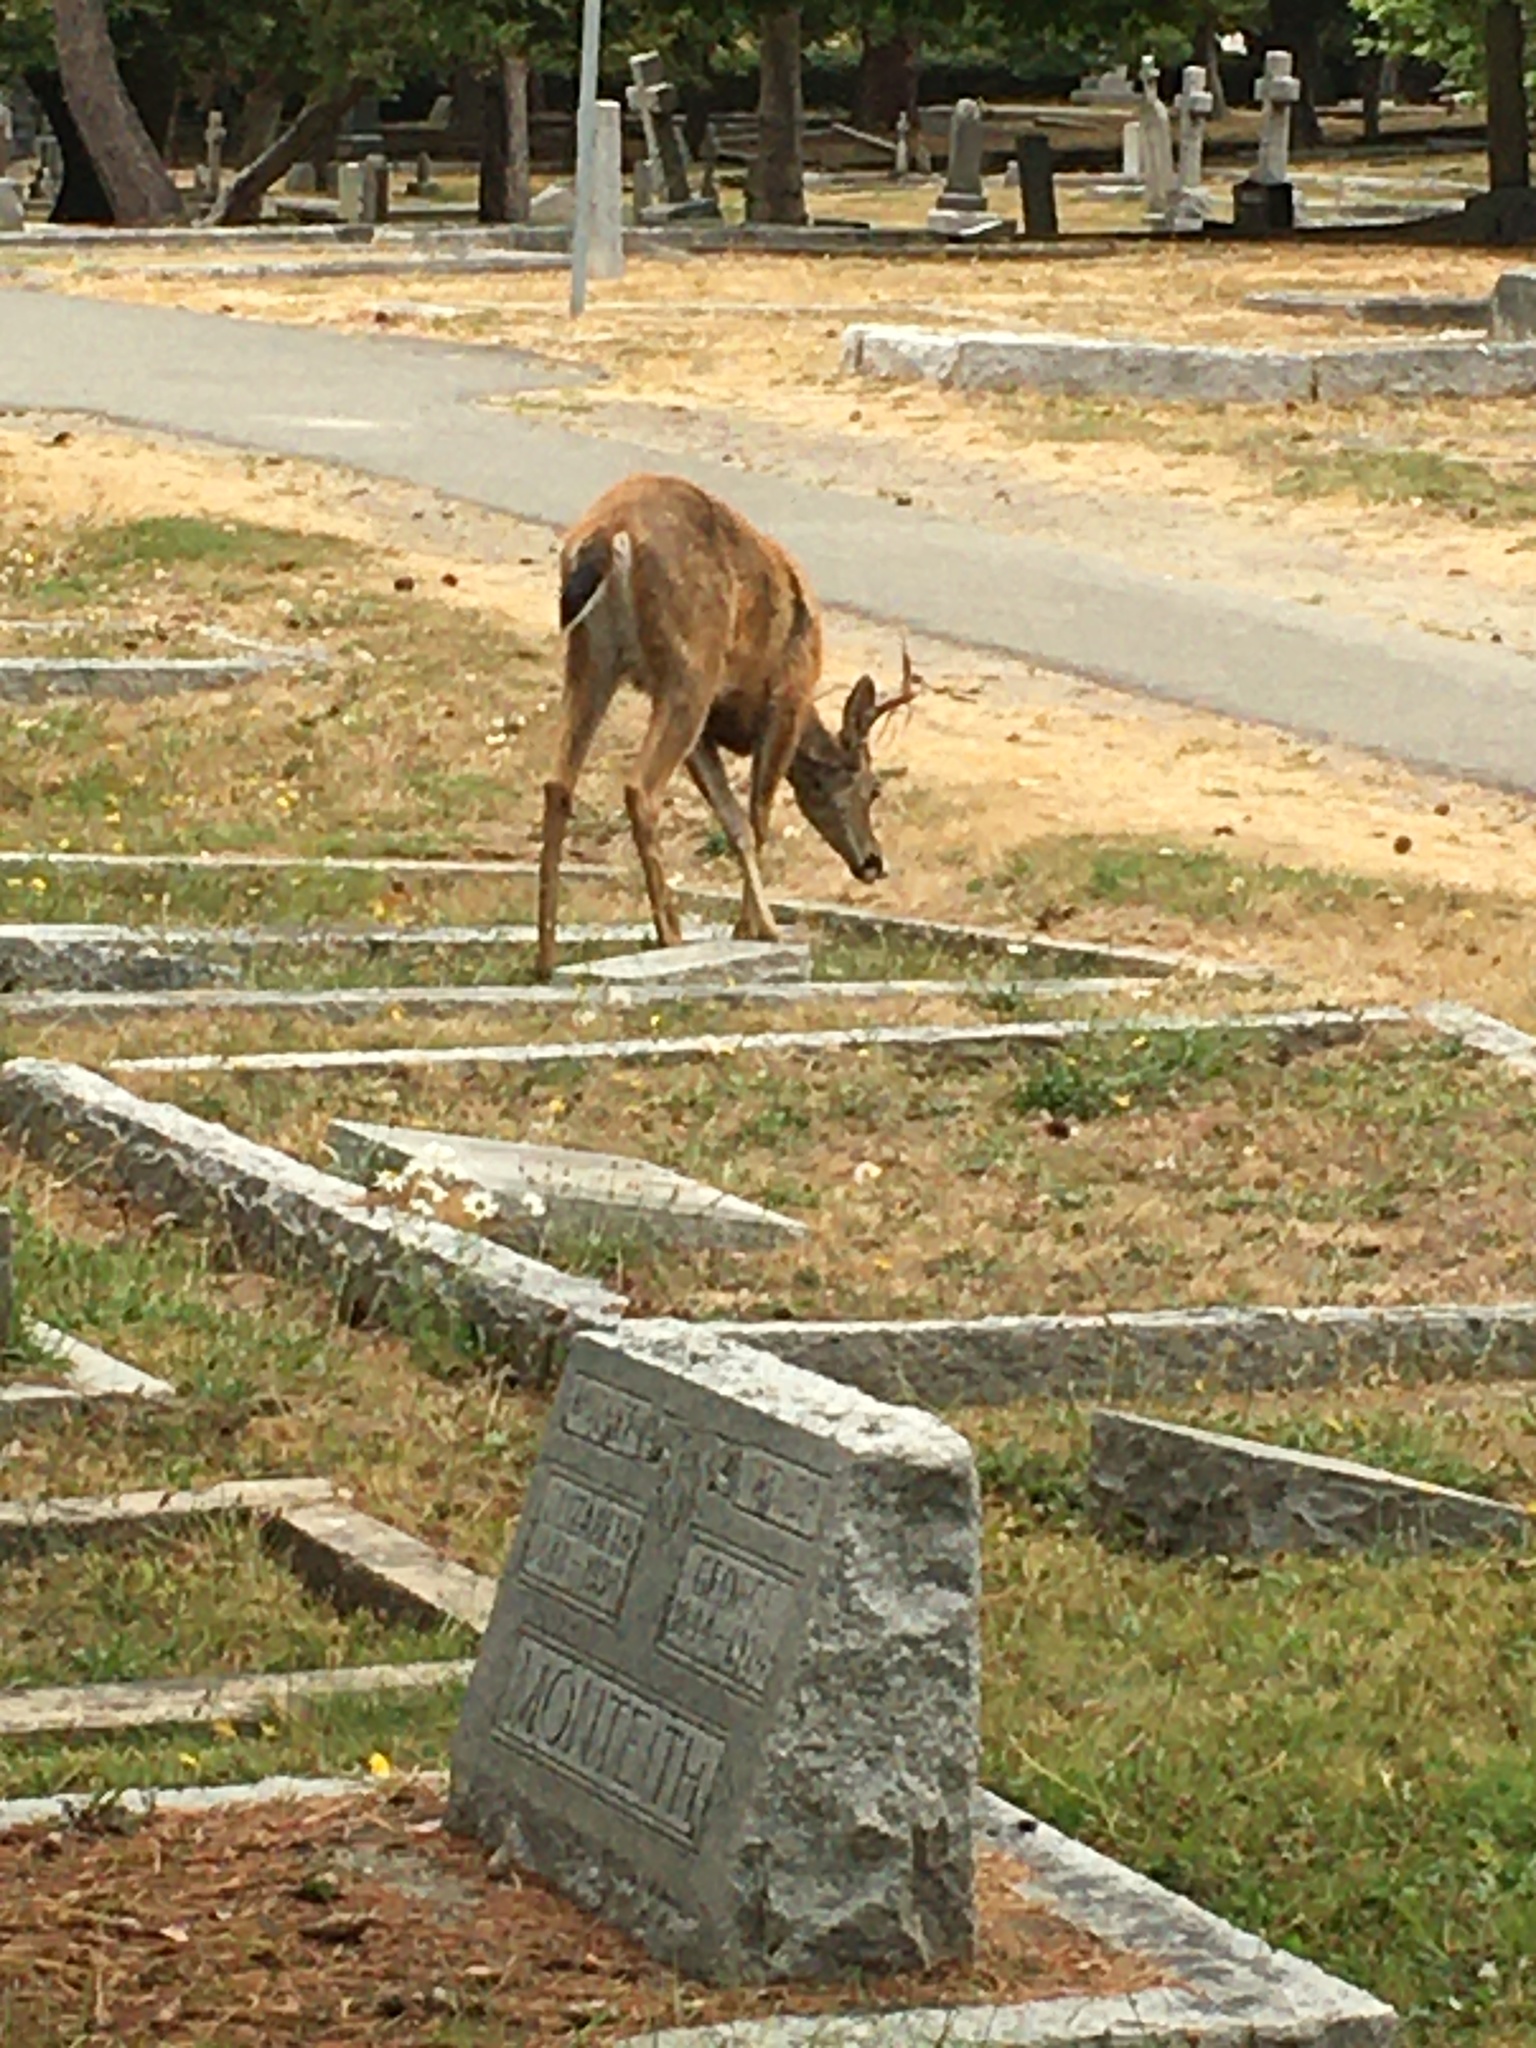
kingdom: Animalia
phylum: Chordata
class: Mammalia
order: Artiodactyla
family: Cervidae
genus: Odocoileus
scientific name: Odocoileus hemionus
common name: Mule deer
